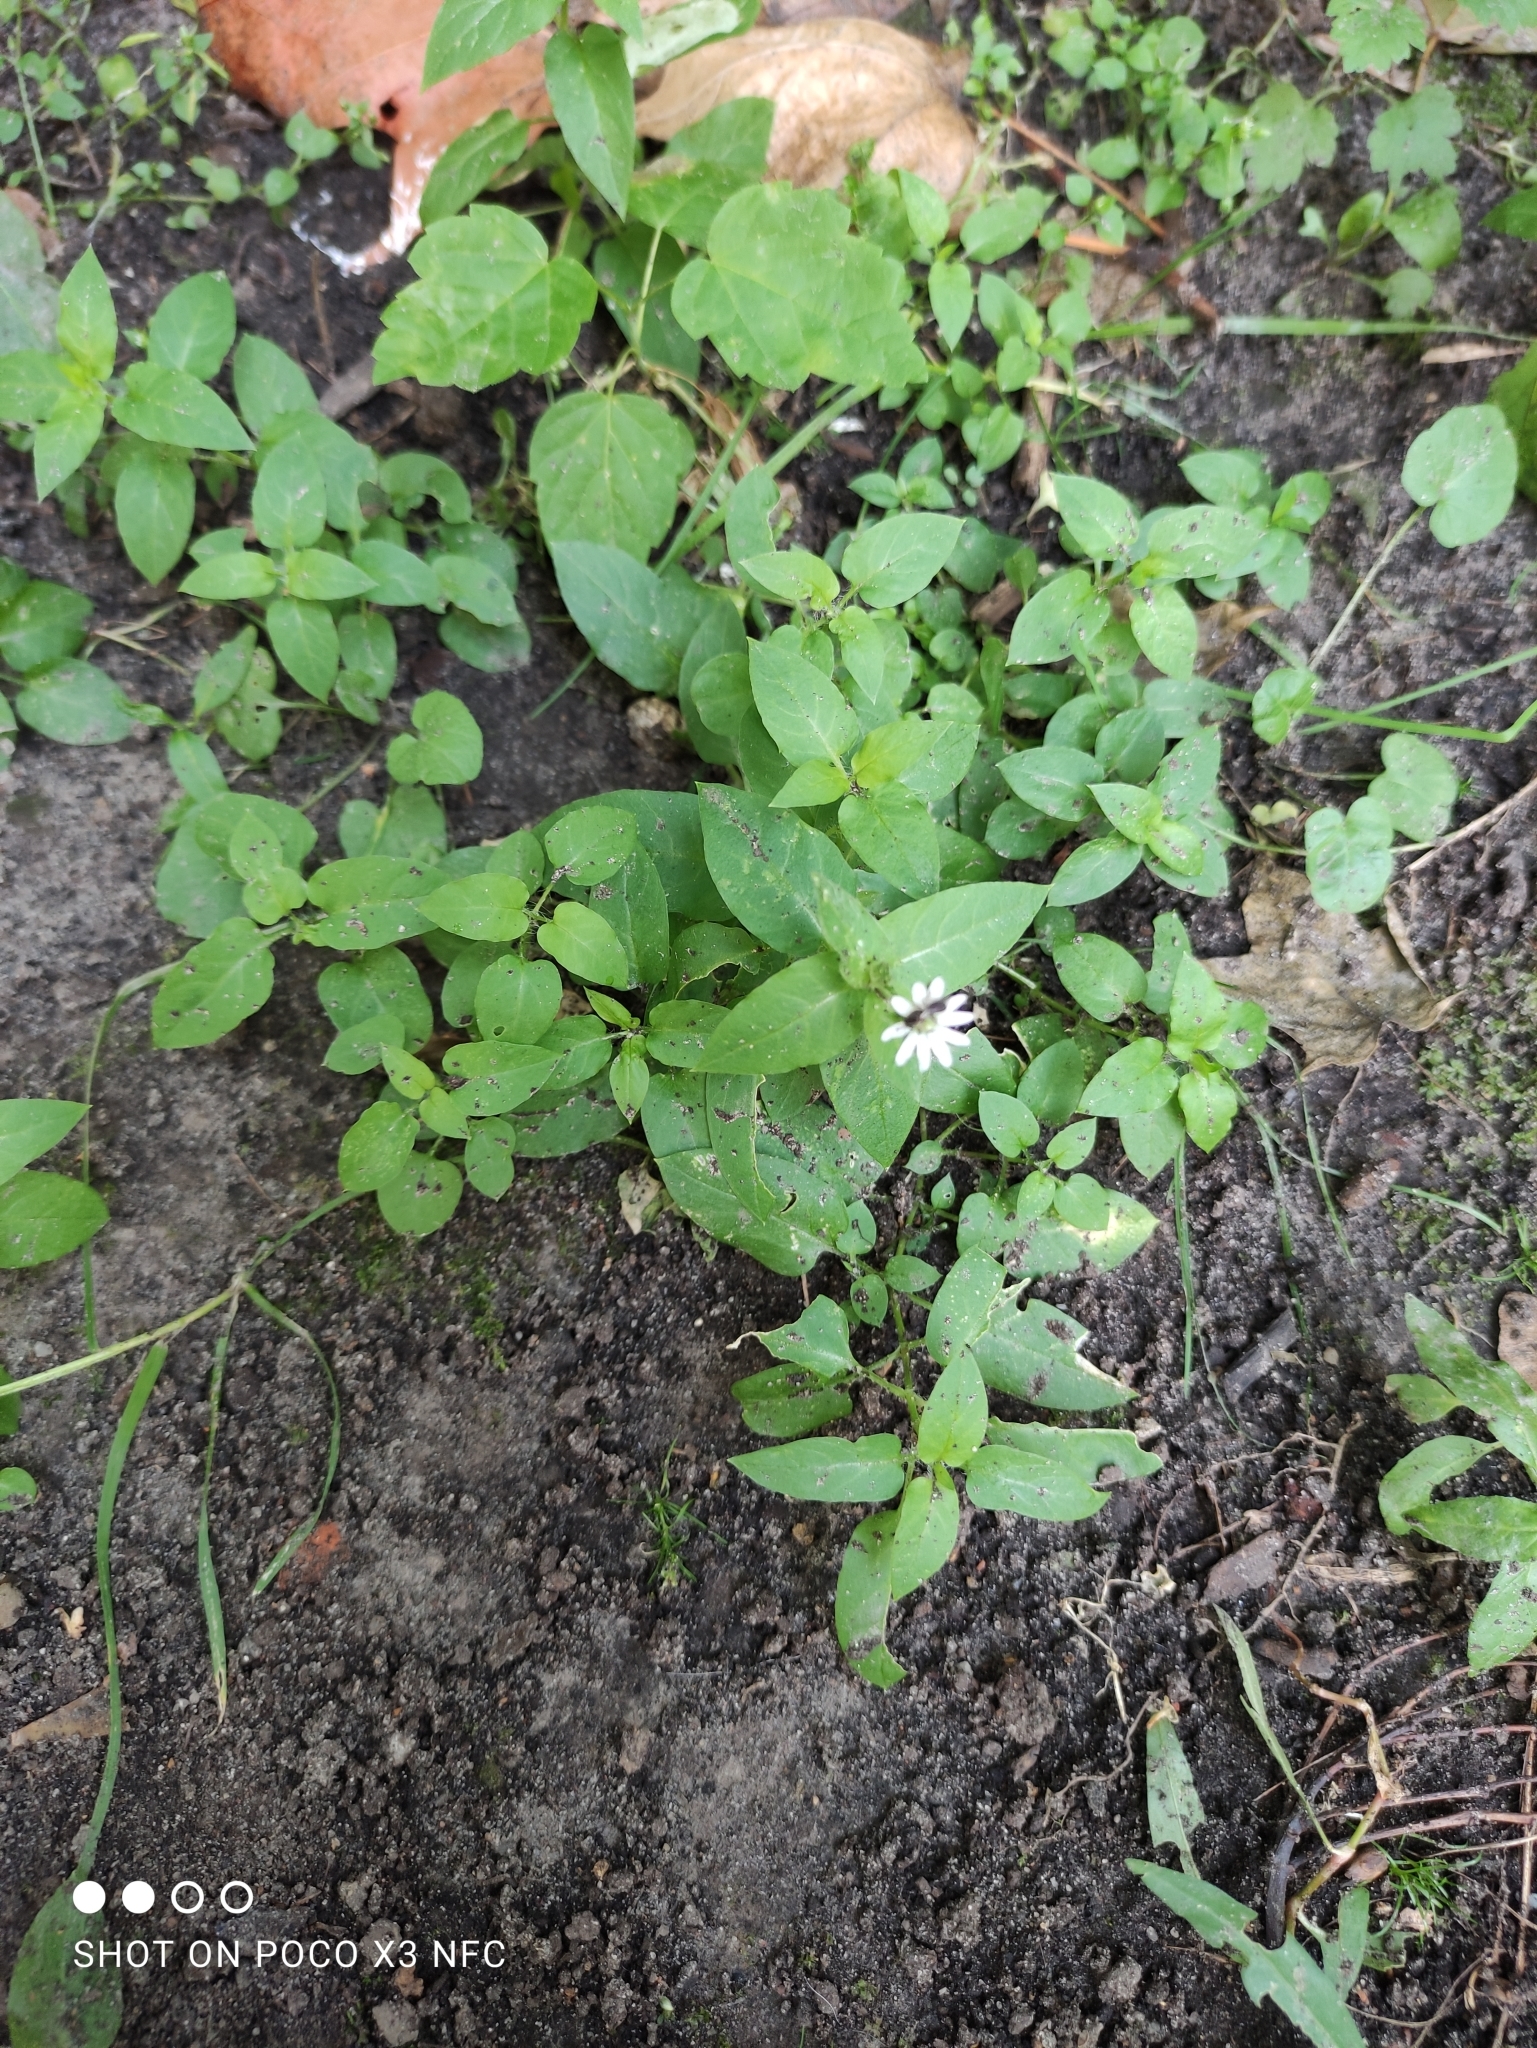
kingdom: Plantae
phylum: Tracheophyta
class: Magnoliopsida
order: Caryophyllales
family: Caryophyllaceae
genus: Stellaria
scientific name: Stellaria aquatica
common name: Water chickweed
